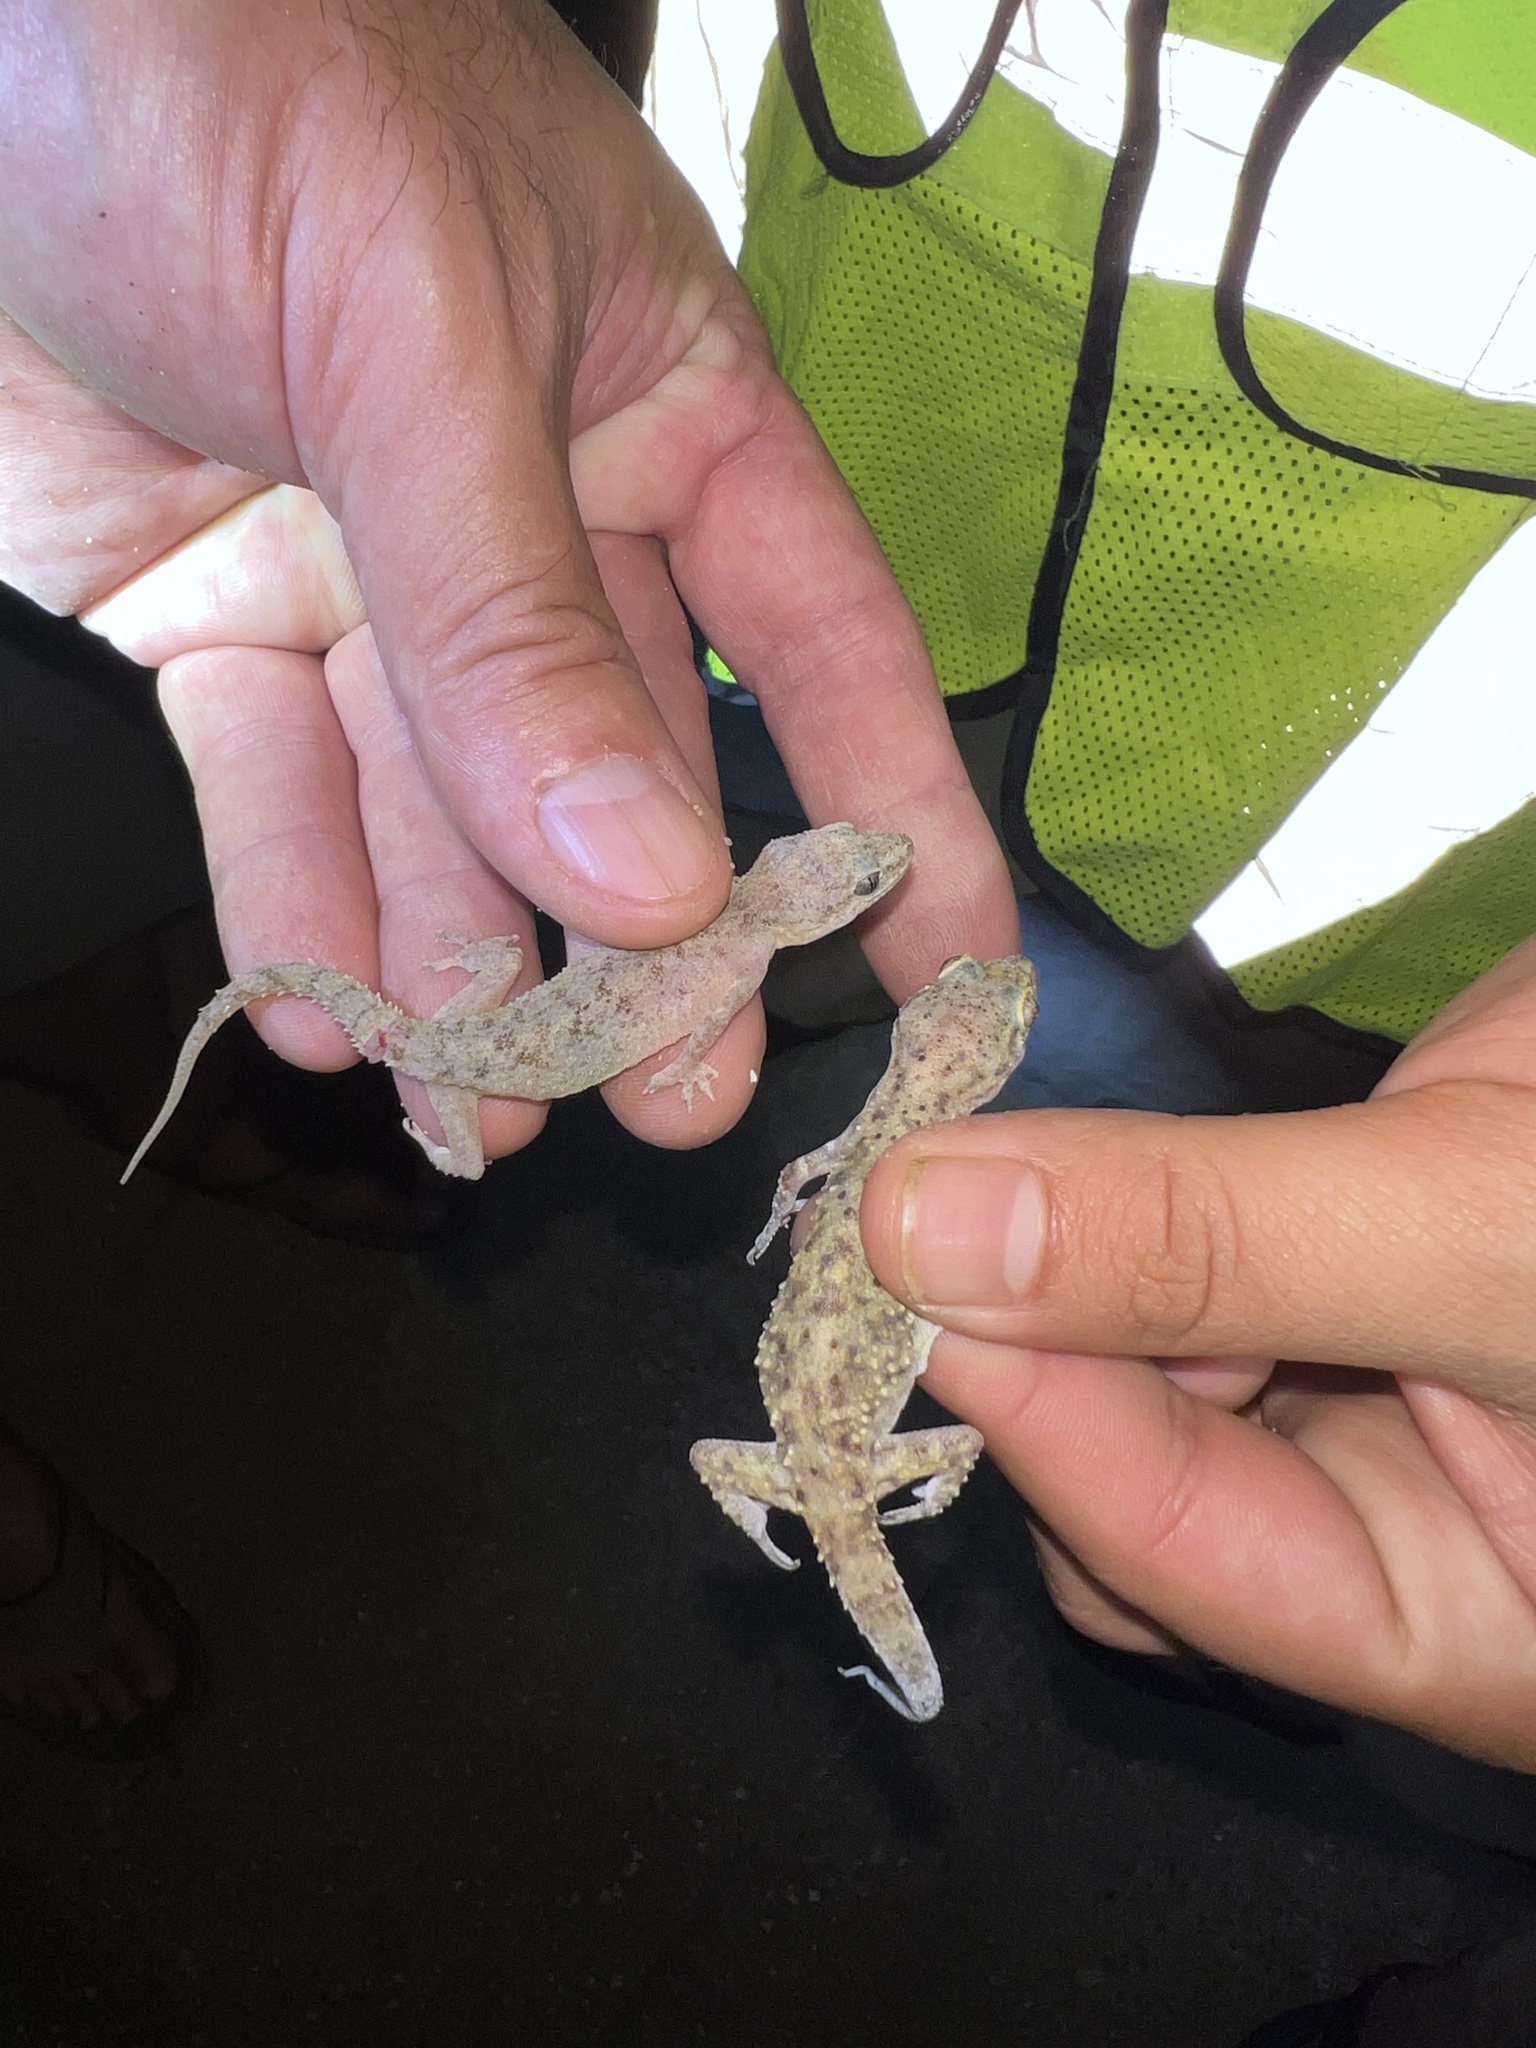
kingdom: Animalia
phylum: Chordata
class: Squamata
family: Gekkonidae
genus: Hemidactylus
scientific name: Hemidactylus turcicus
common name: Turkish gecko
